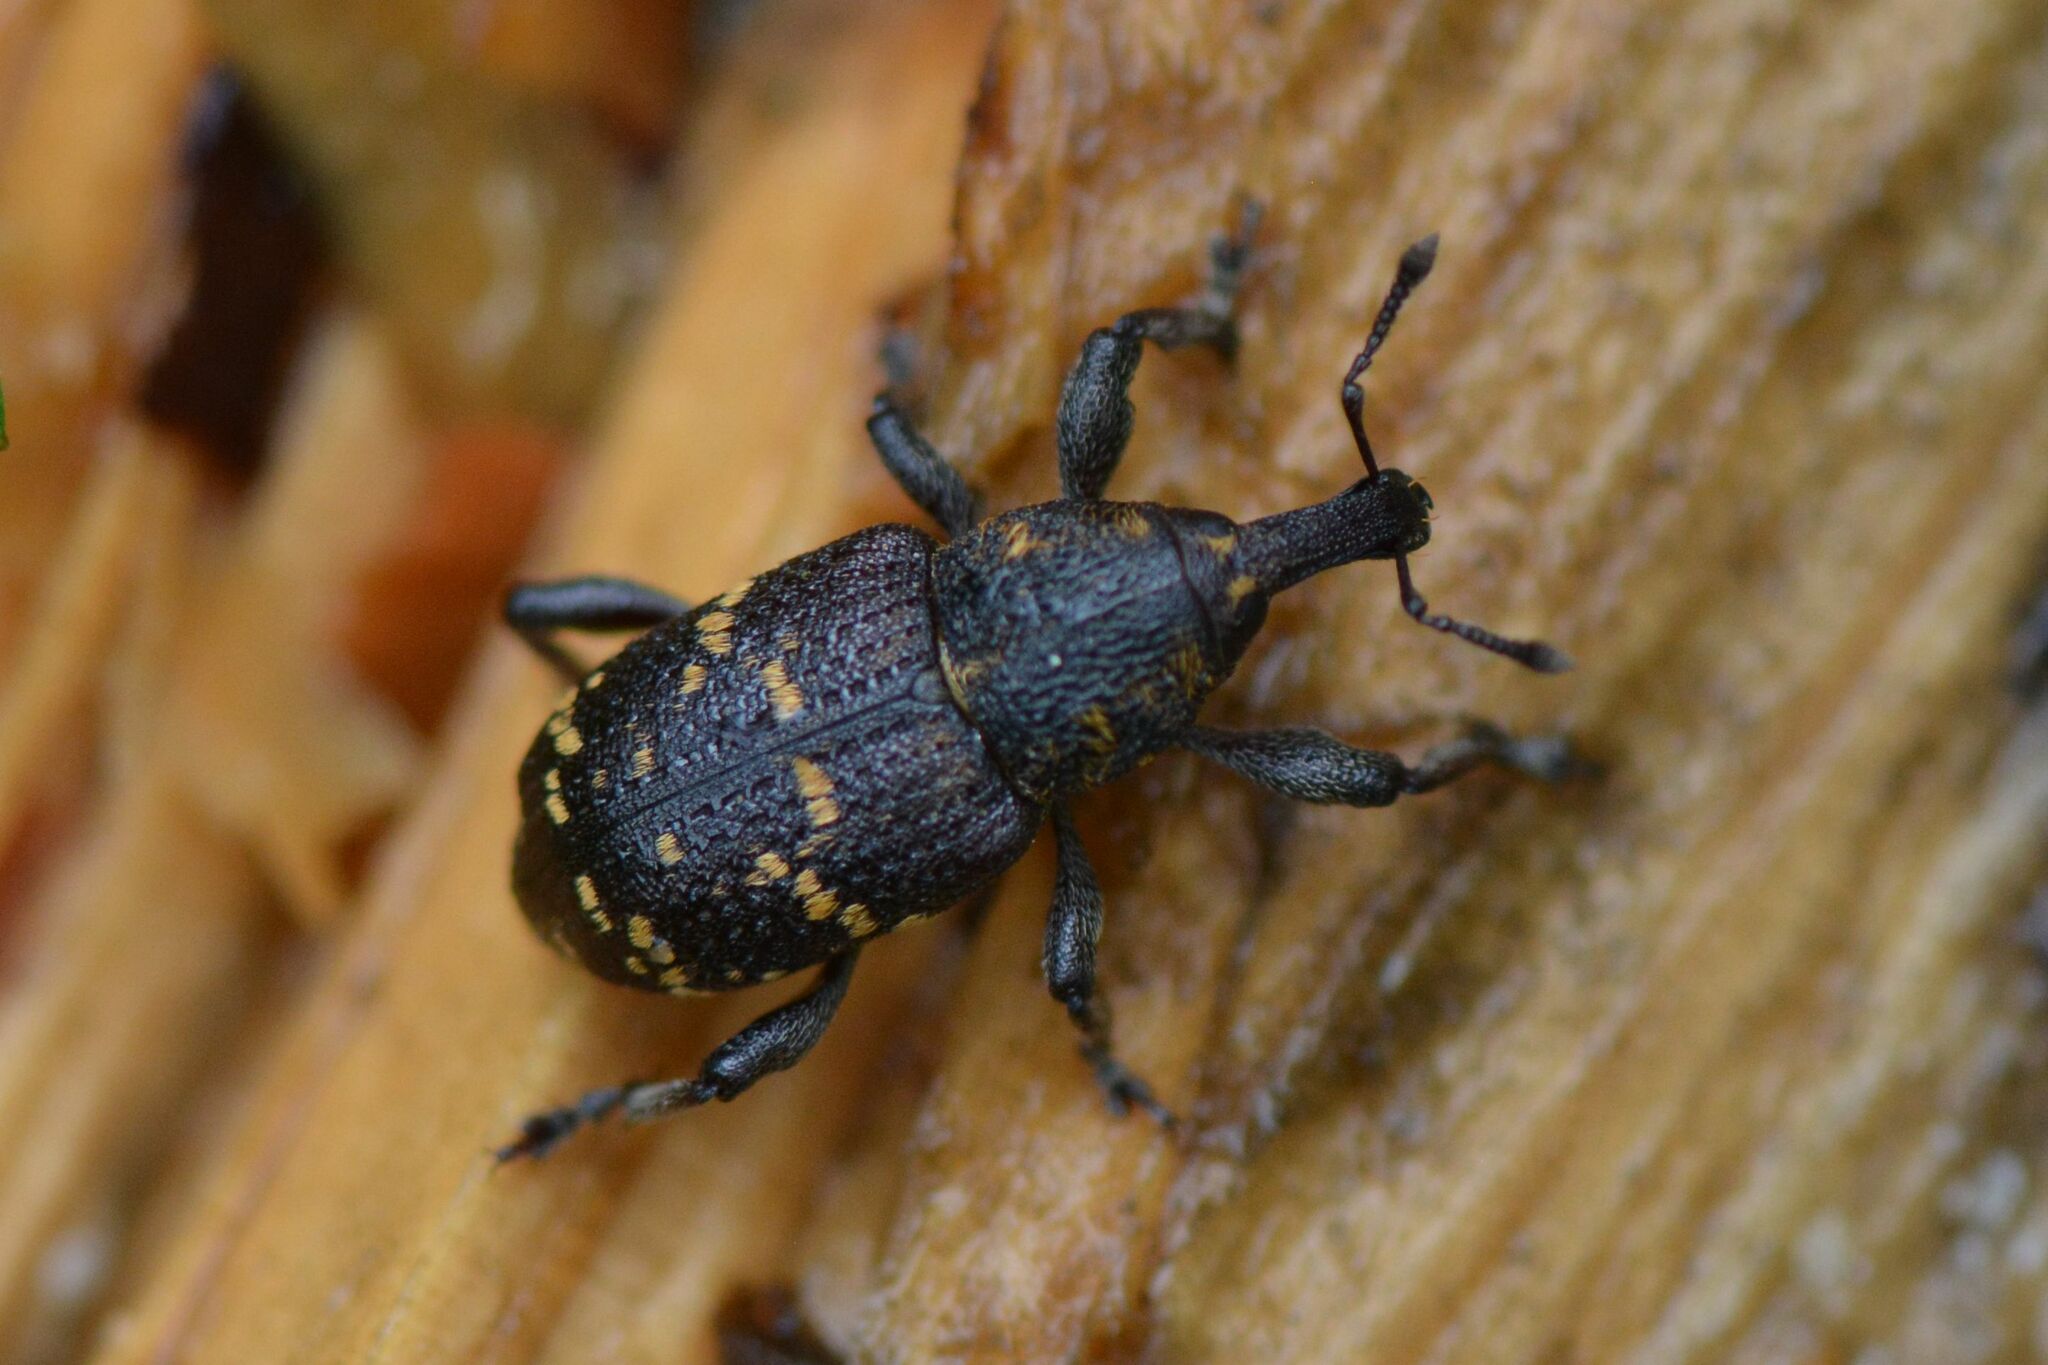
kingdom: Animalia
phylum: Arthropoda
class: Insecta
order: Coleoptera
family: Curculionidae
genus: Hylobius
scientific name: Hylobius abietis
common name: Large pine weevil
